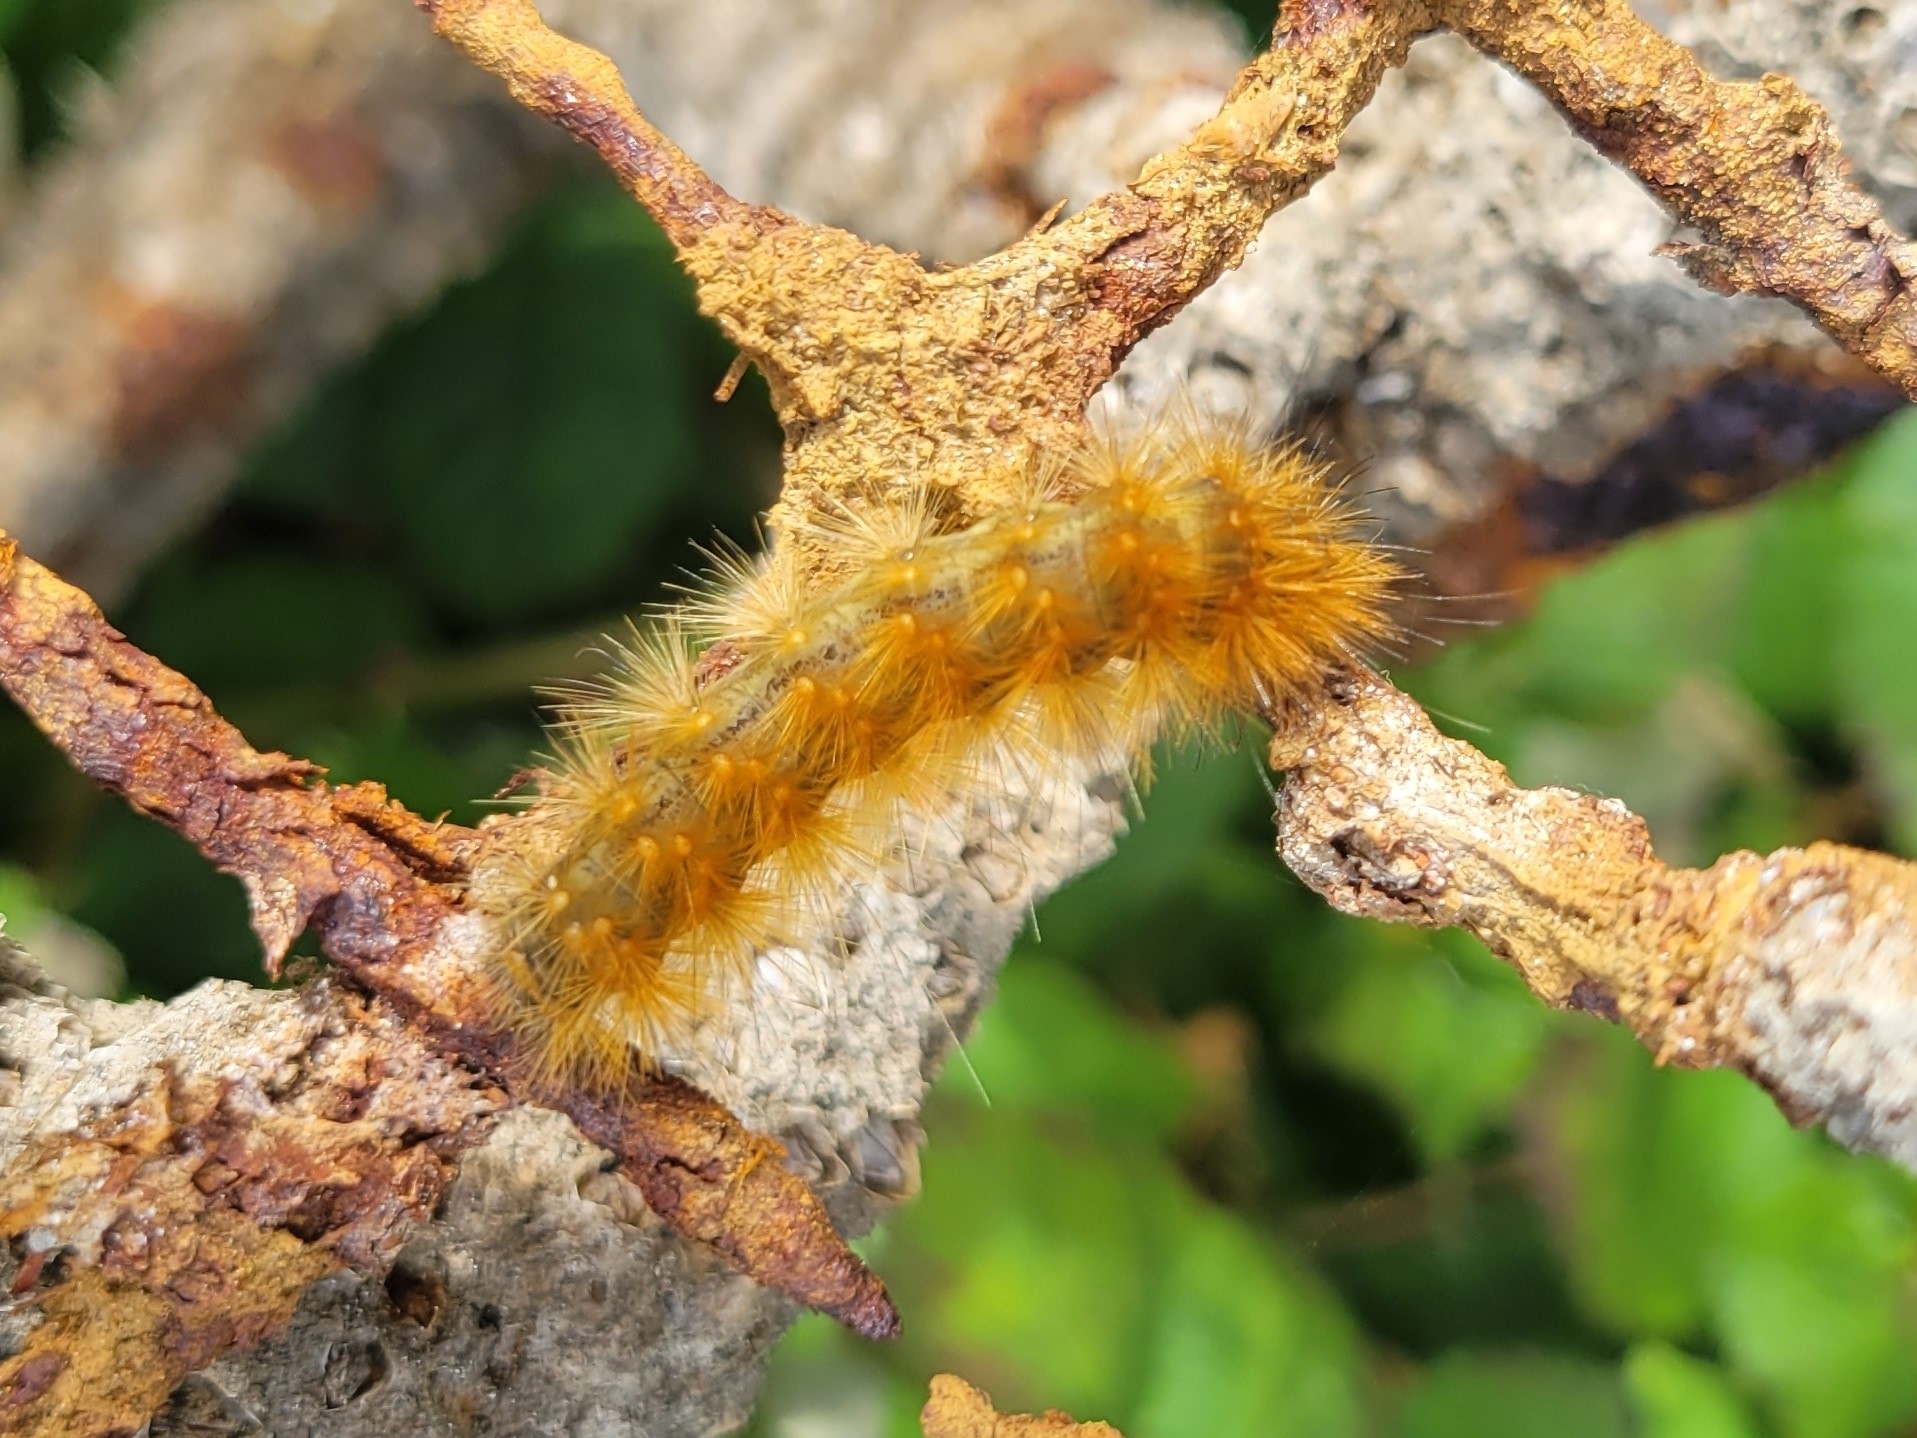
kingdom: Animalia
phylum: Arthropoda
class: Insecta
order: Lepidoptera
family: Erebidae
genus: Spilosoma
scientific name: Spilosoma virginica
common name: Virginia tiger moth
